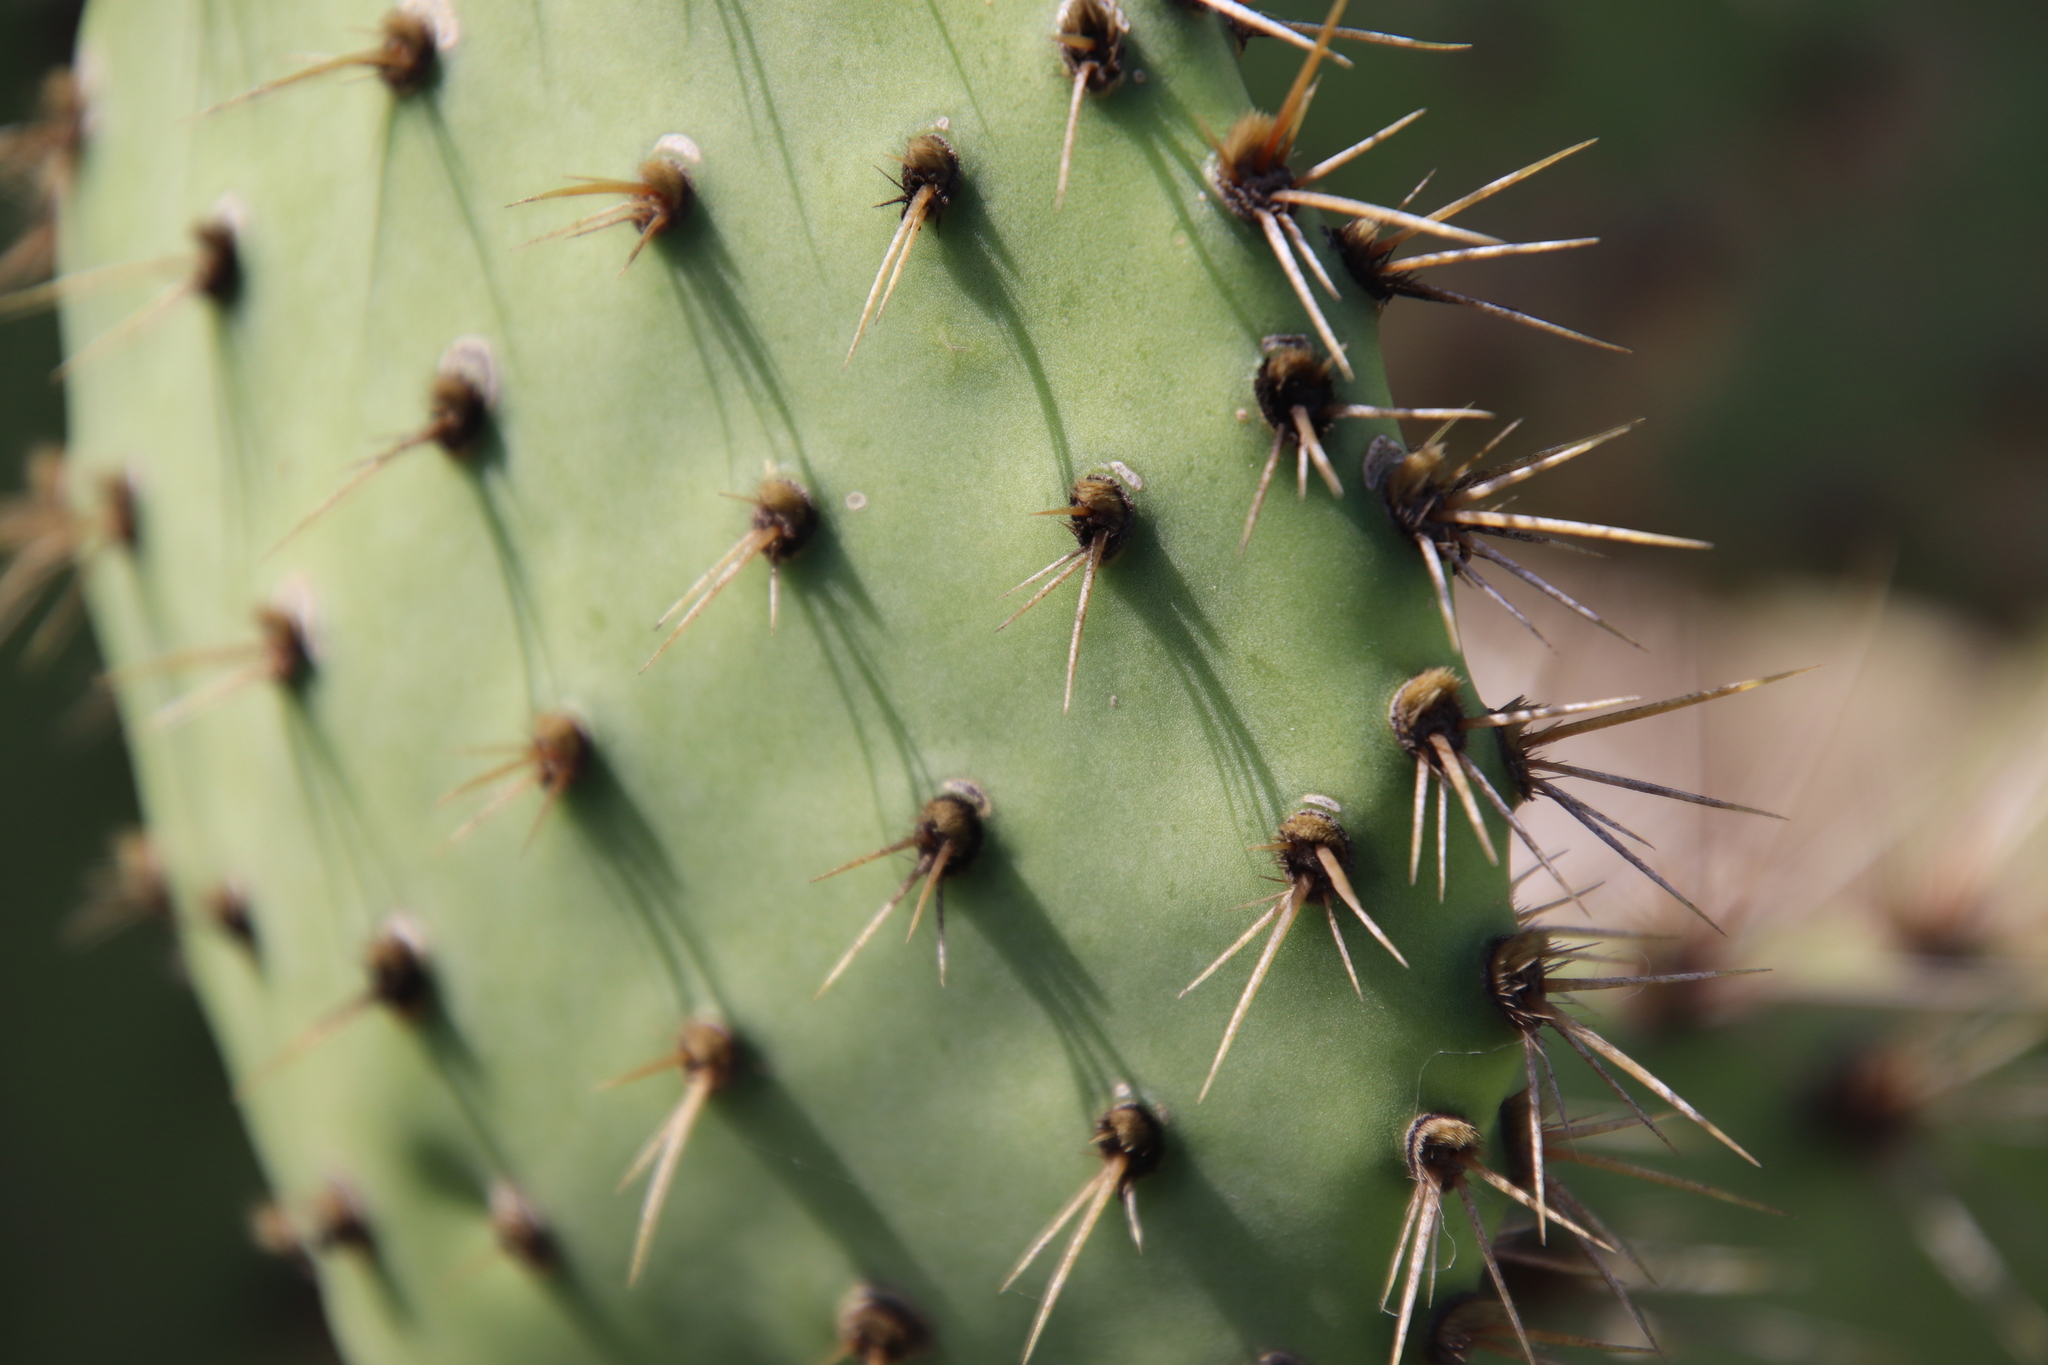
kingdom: Plantae
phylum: Tracheophyta
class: Magnoliopsida
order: Caryophyllales
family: Cactaceae
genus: Opuntia
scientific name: Opuntia oricola
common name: Chaparral prickly-pear
